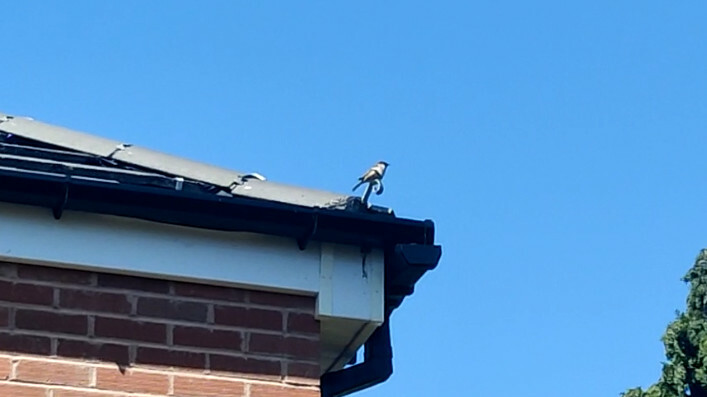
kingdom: Animalia
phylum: Chordata
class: Aves
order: Passeriformes
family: Passeridae
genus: Passer
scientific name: Passer domesticus
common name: House sparrow
